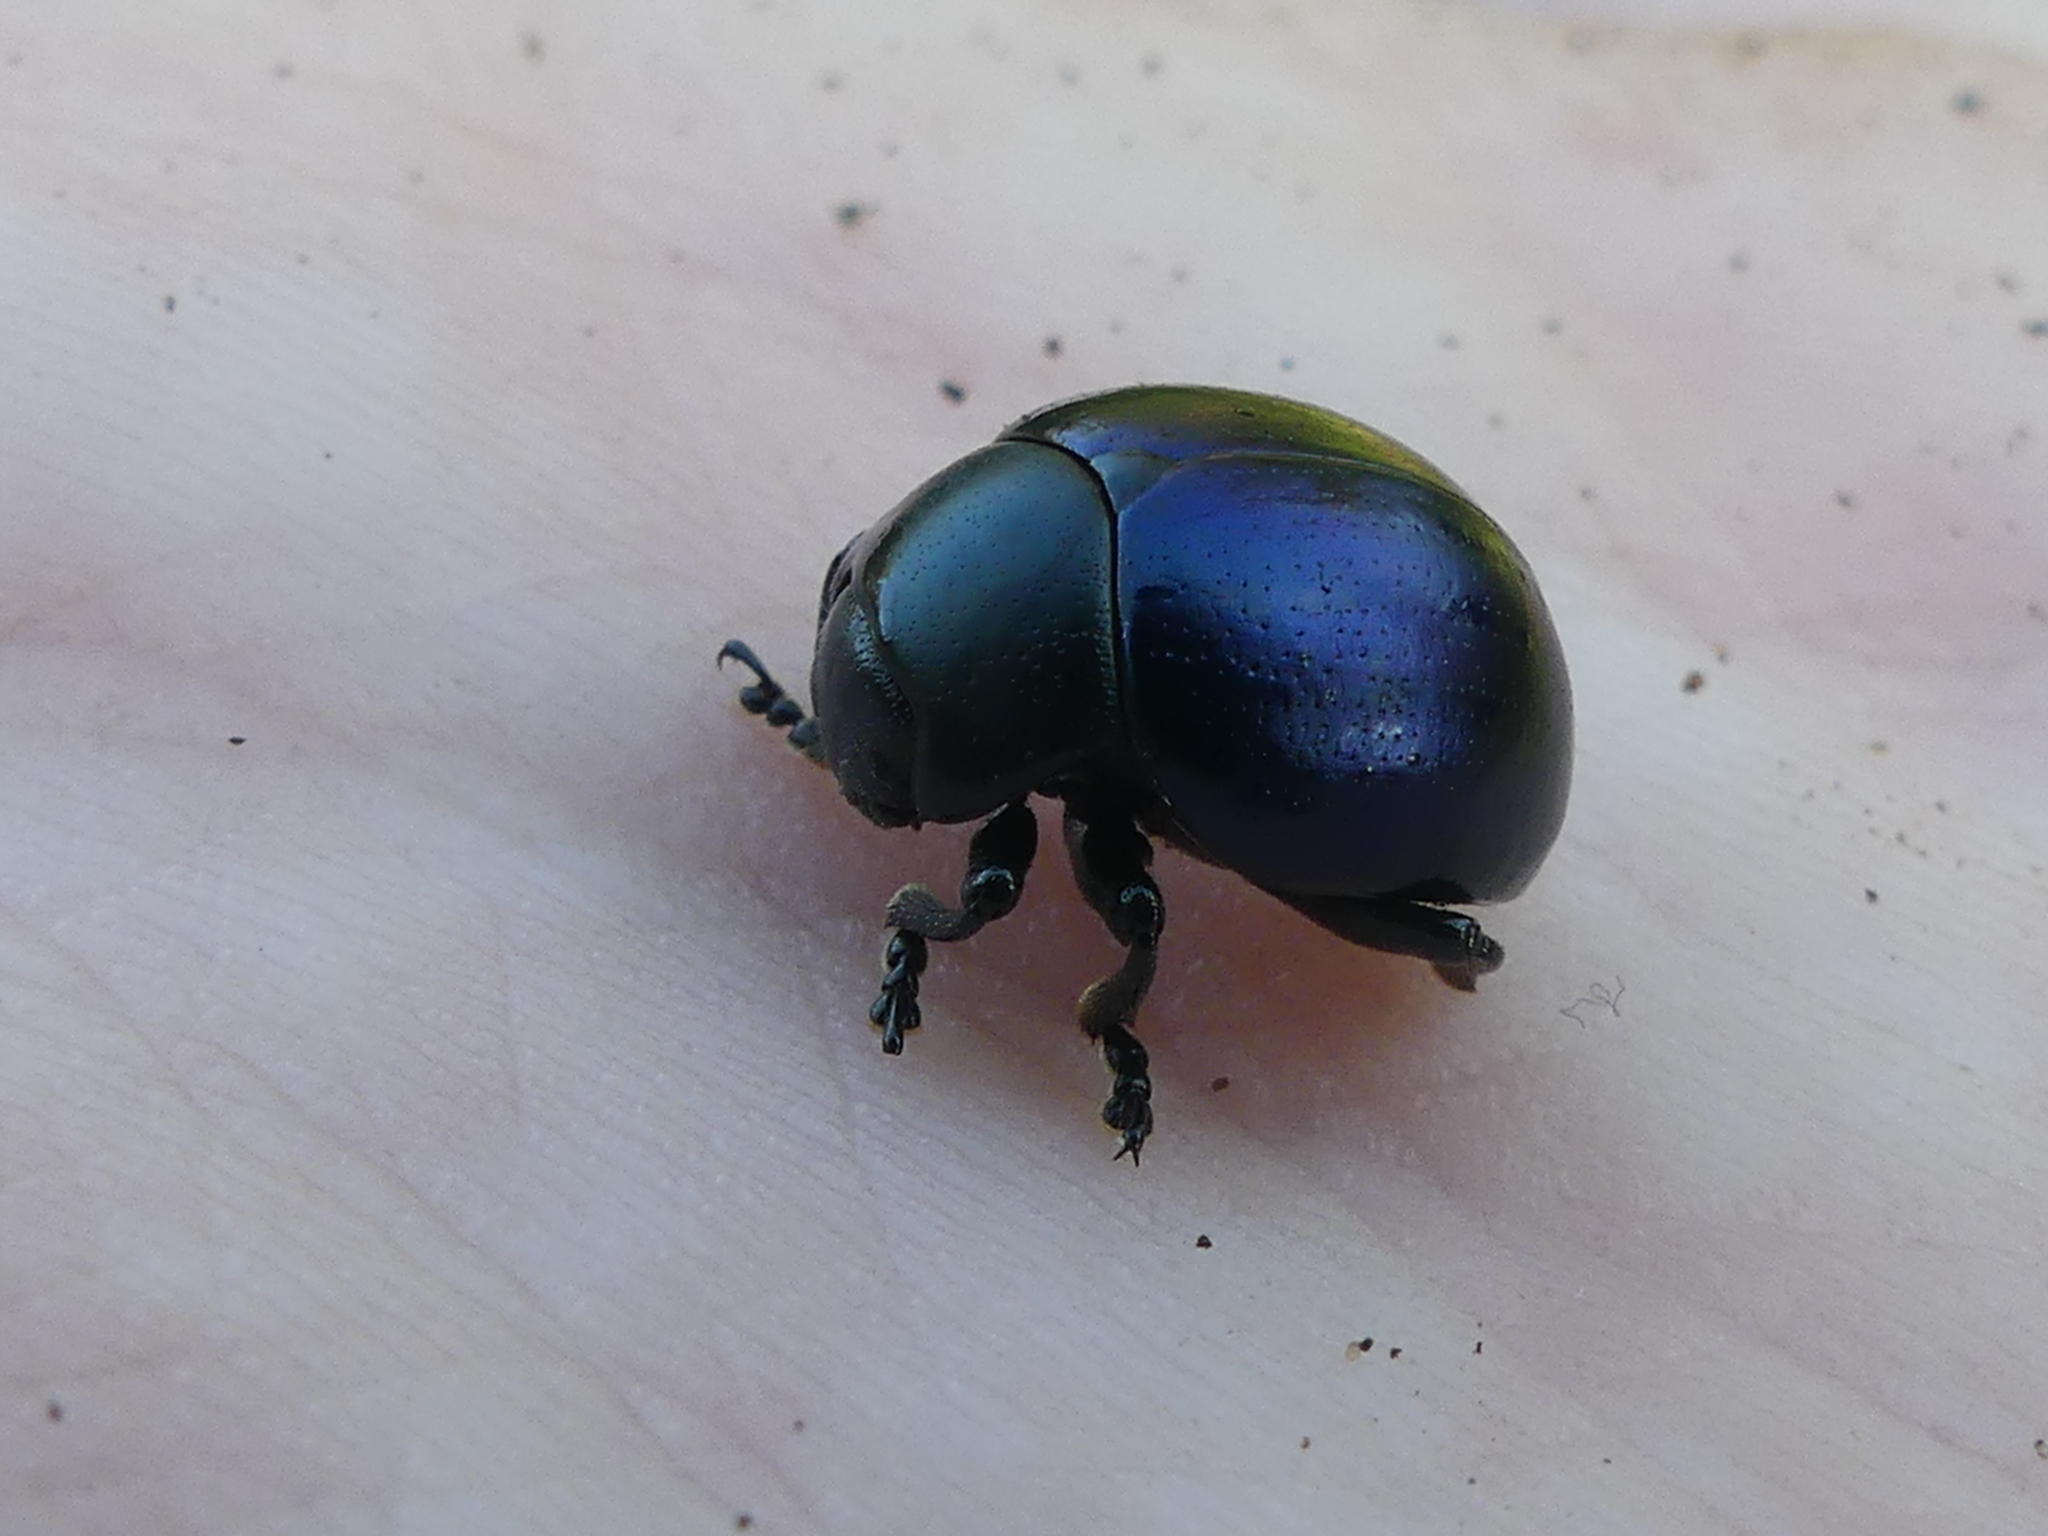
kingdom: Animalia
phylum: Arthropoda
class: Insecta
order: Coleoptera
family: Chrysomelidae
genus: Leptinotarsa
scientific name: Leptinotarsa haldemani
